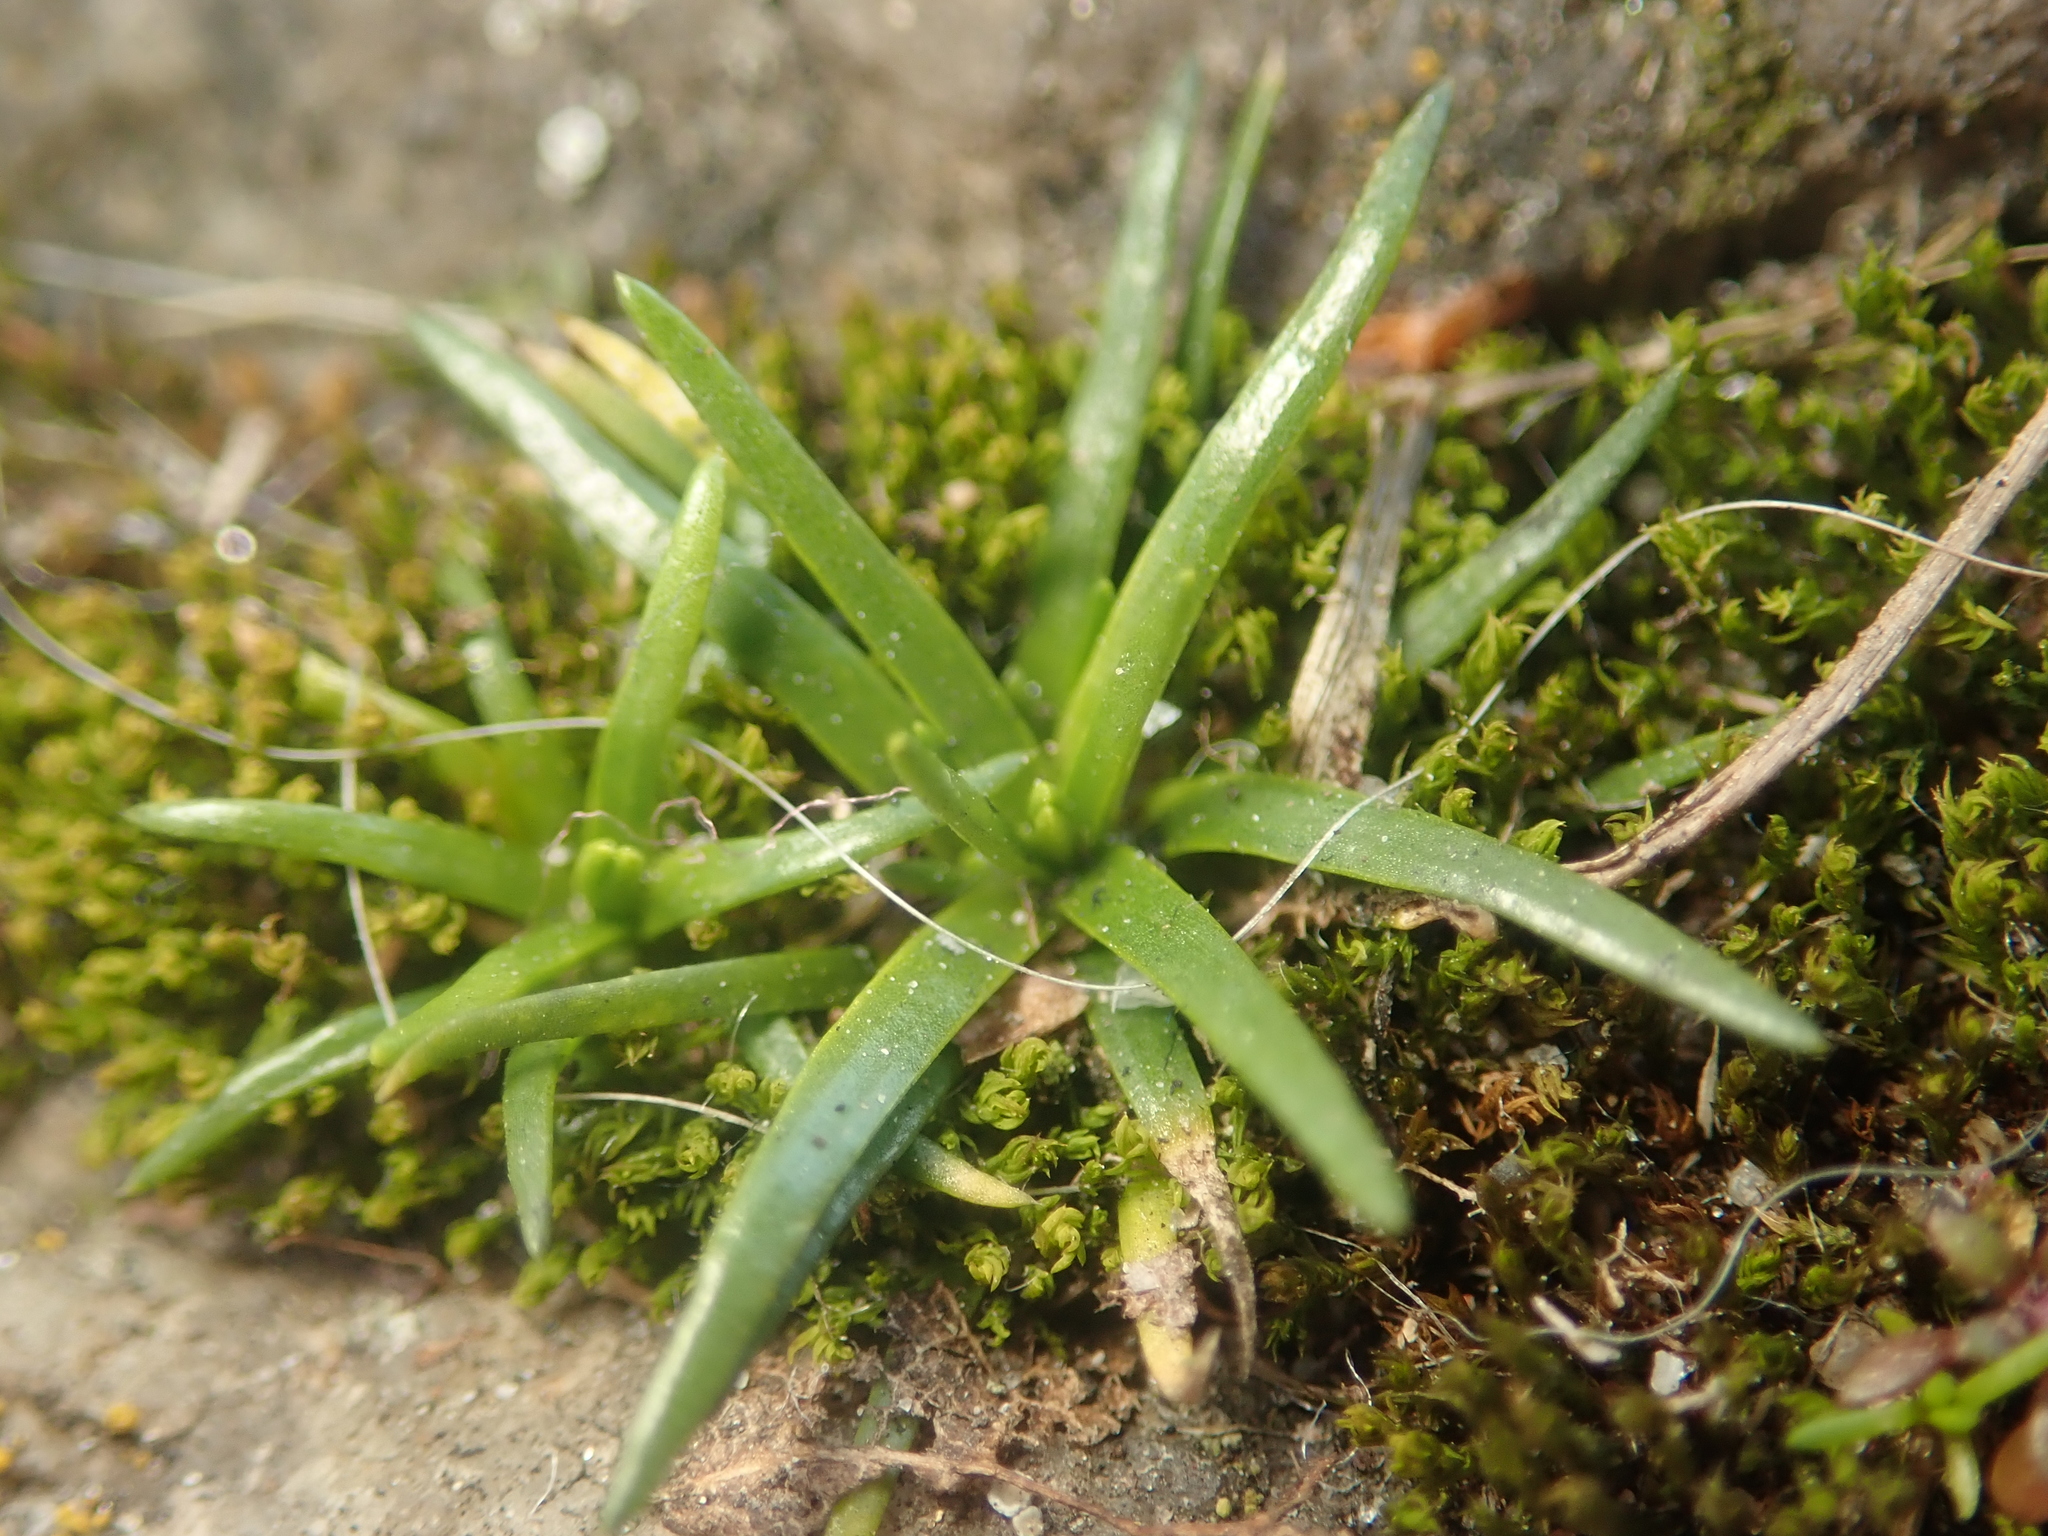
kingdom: Plantae
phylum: Tracheophyta
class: Magnoliopsida
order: Caryophyllales
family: Caryophyllaceae
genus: Sagina
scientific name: Sagina procumbens
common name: Procumbent pearlwort
